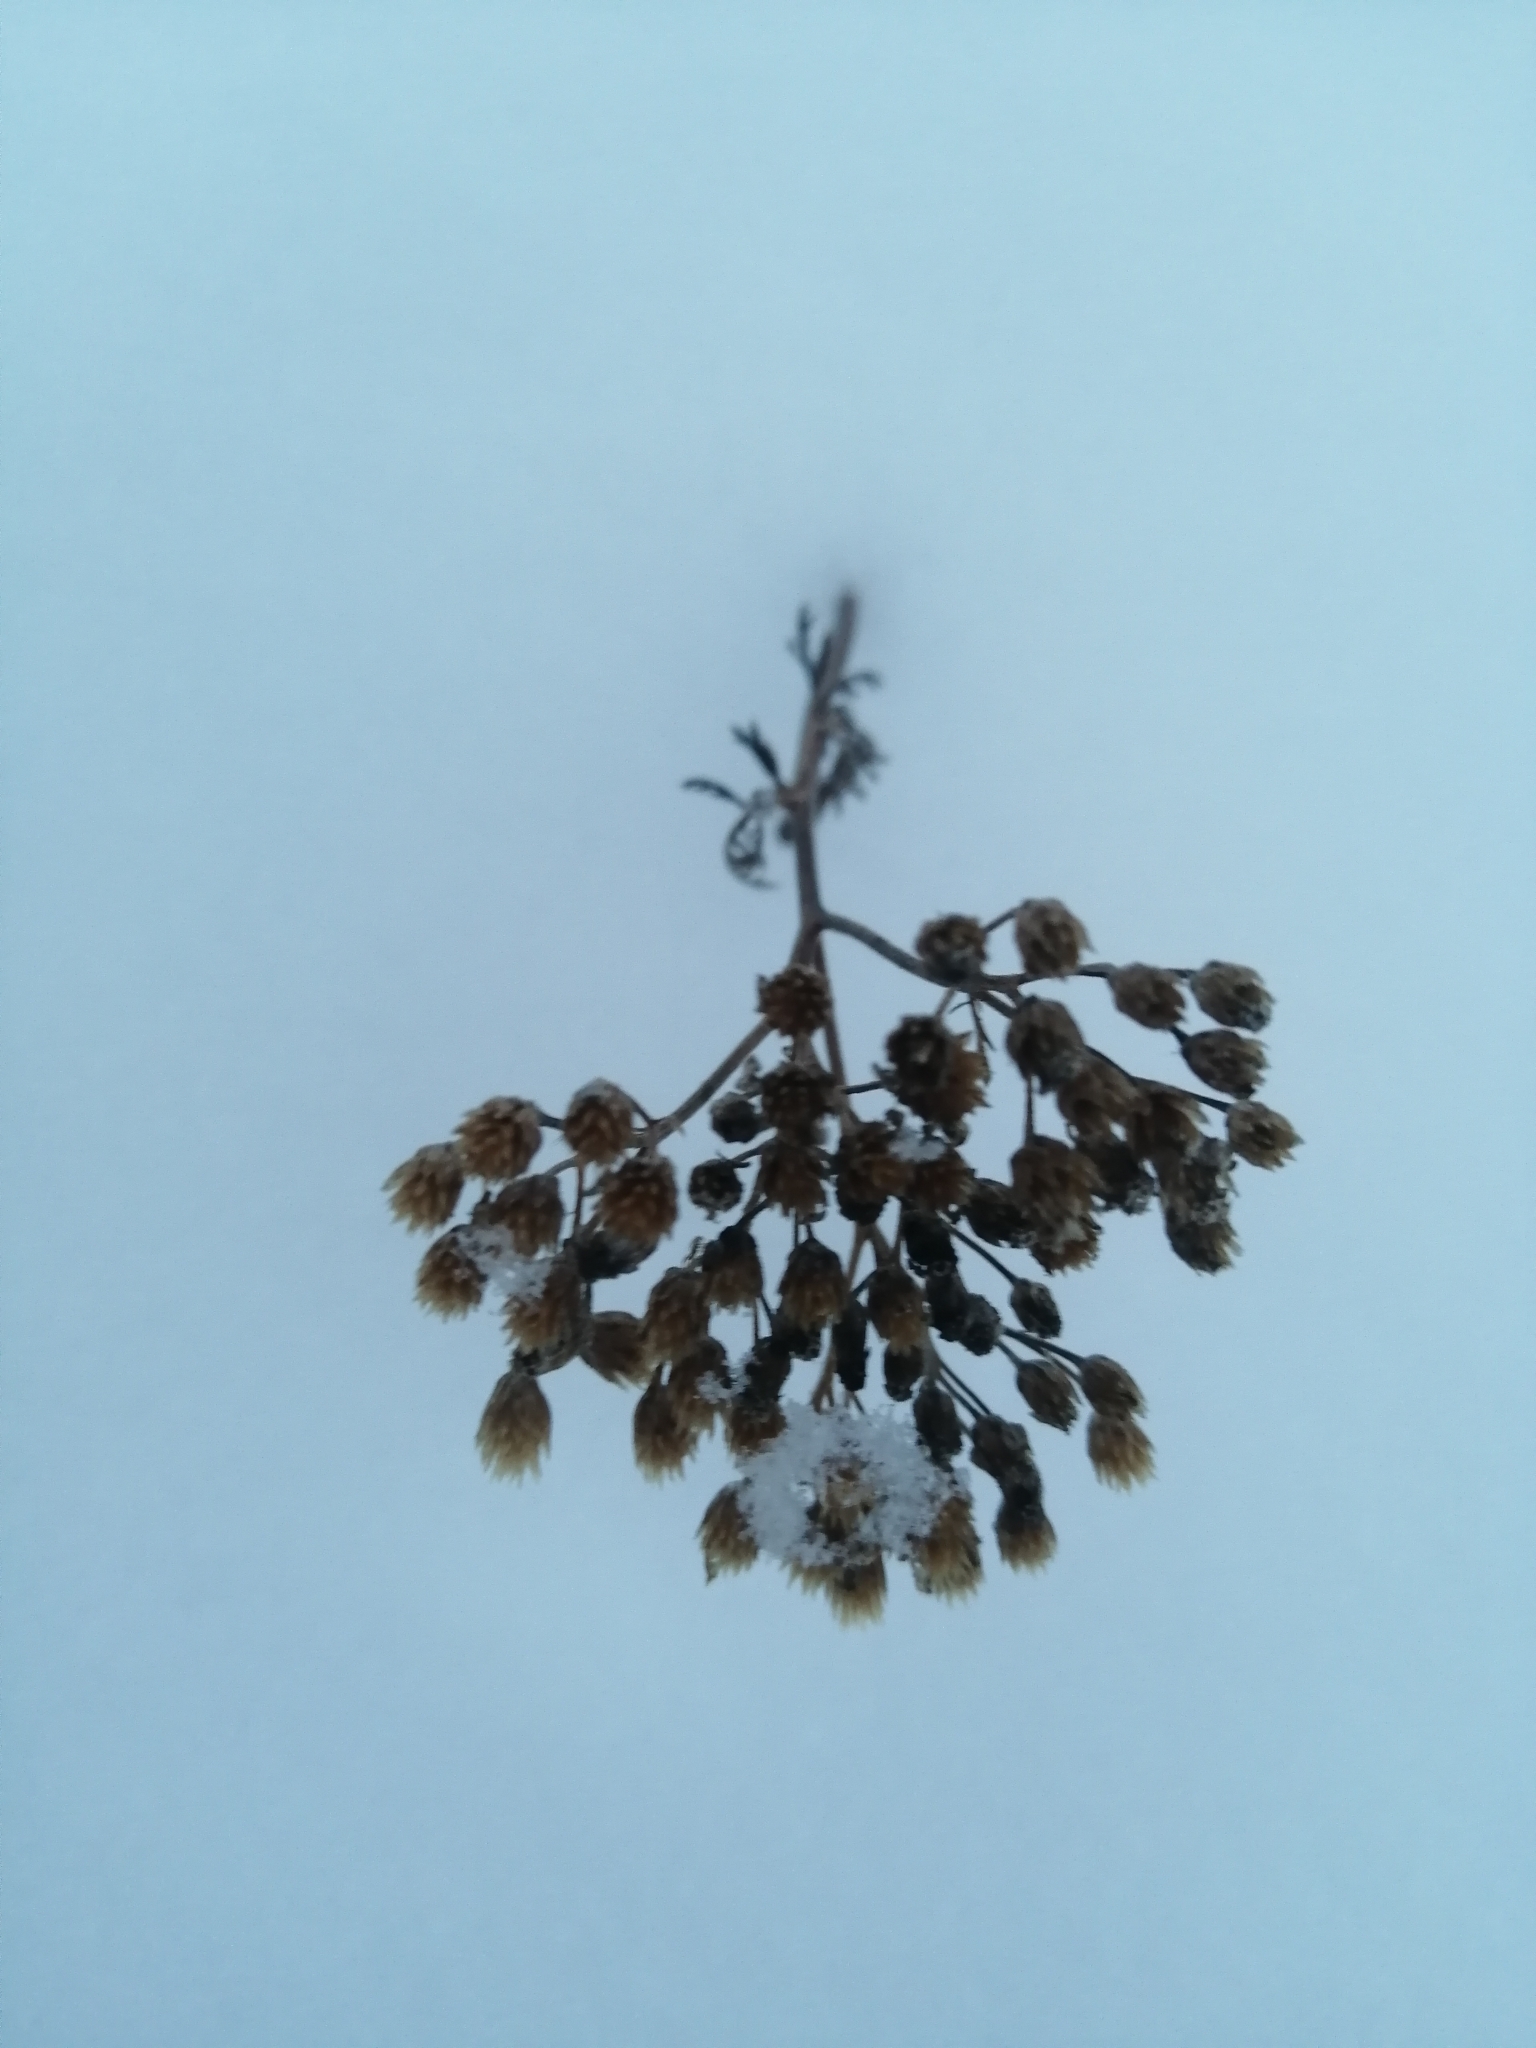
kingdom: Plantae
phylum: Tracheophyta
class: Magnoliopsida
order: Asterales
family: Asteraceae
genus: Achillea
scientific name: Achillea millefolium
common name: Yarrow
